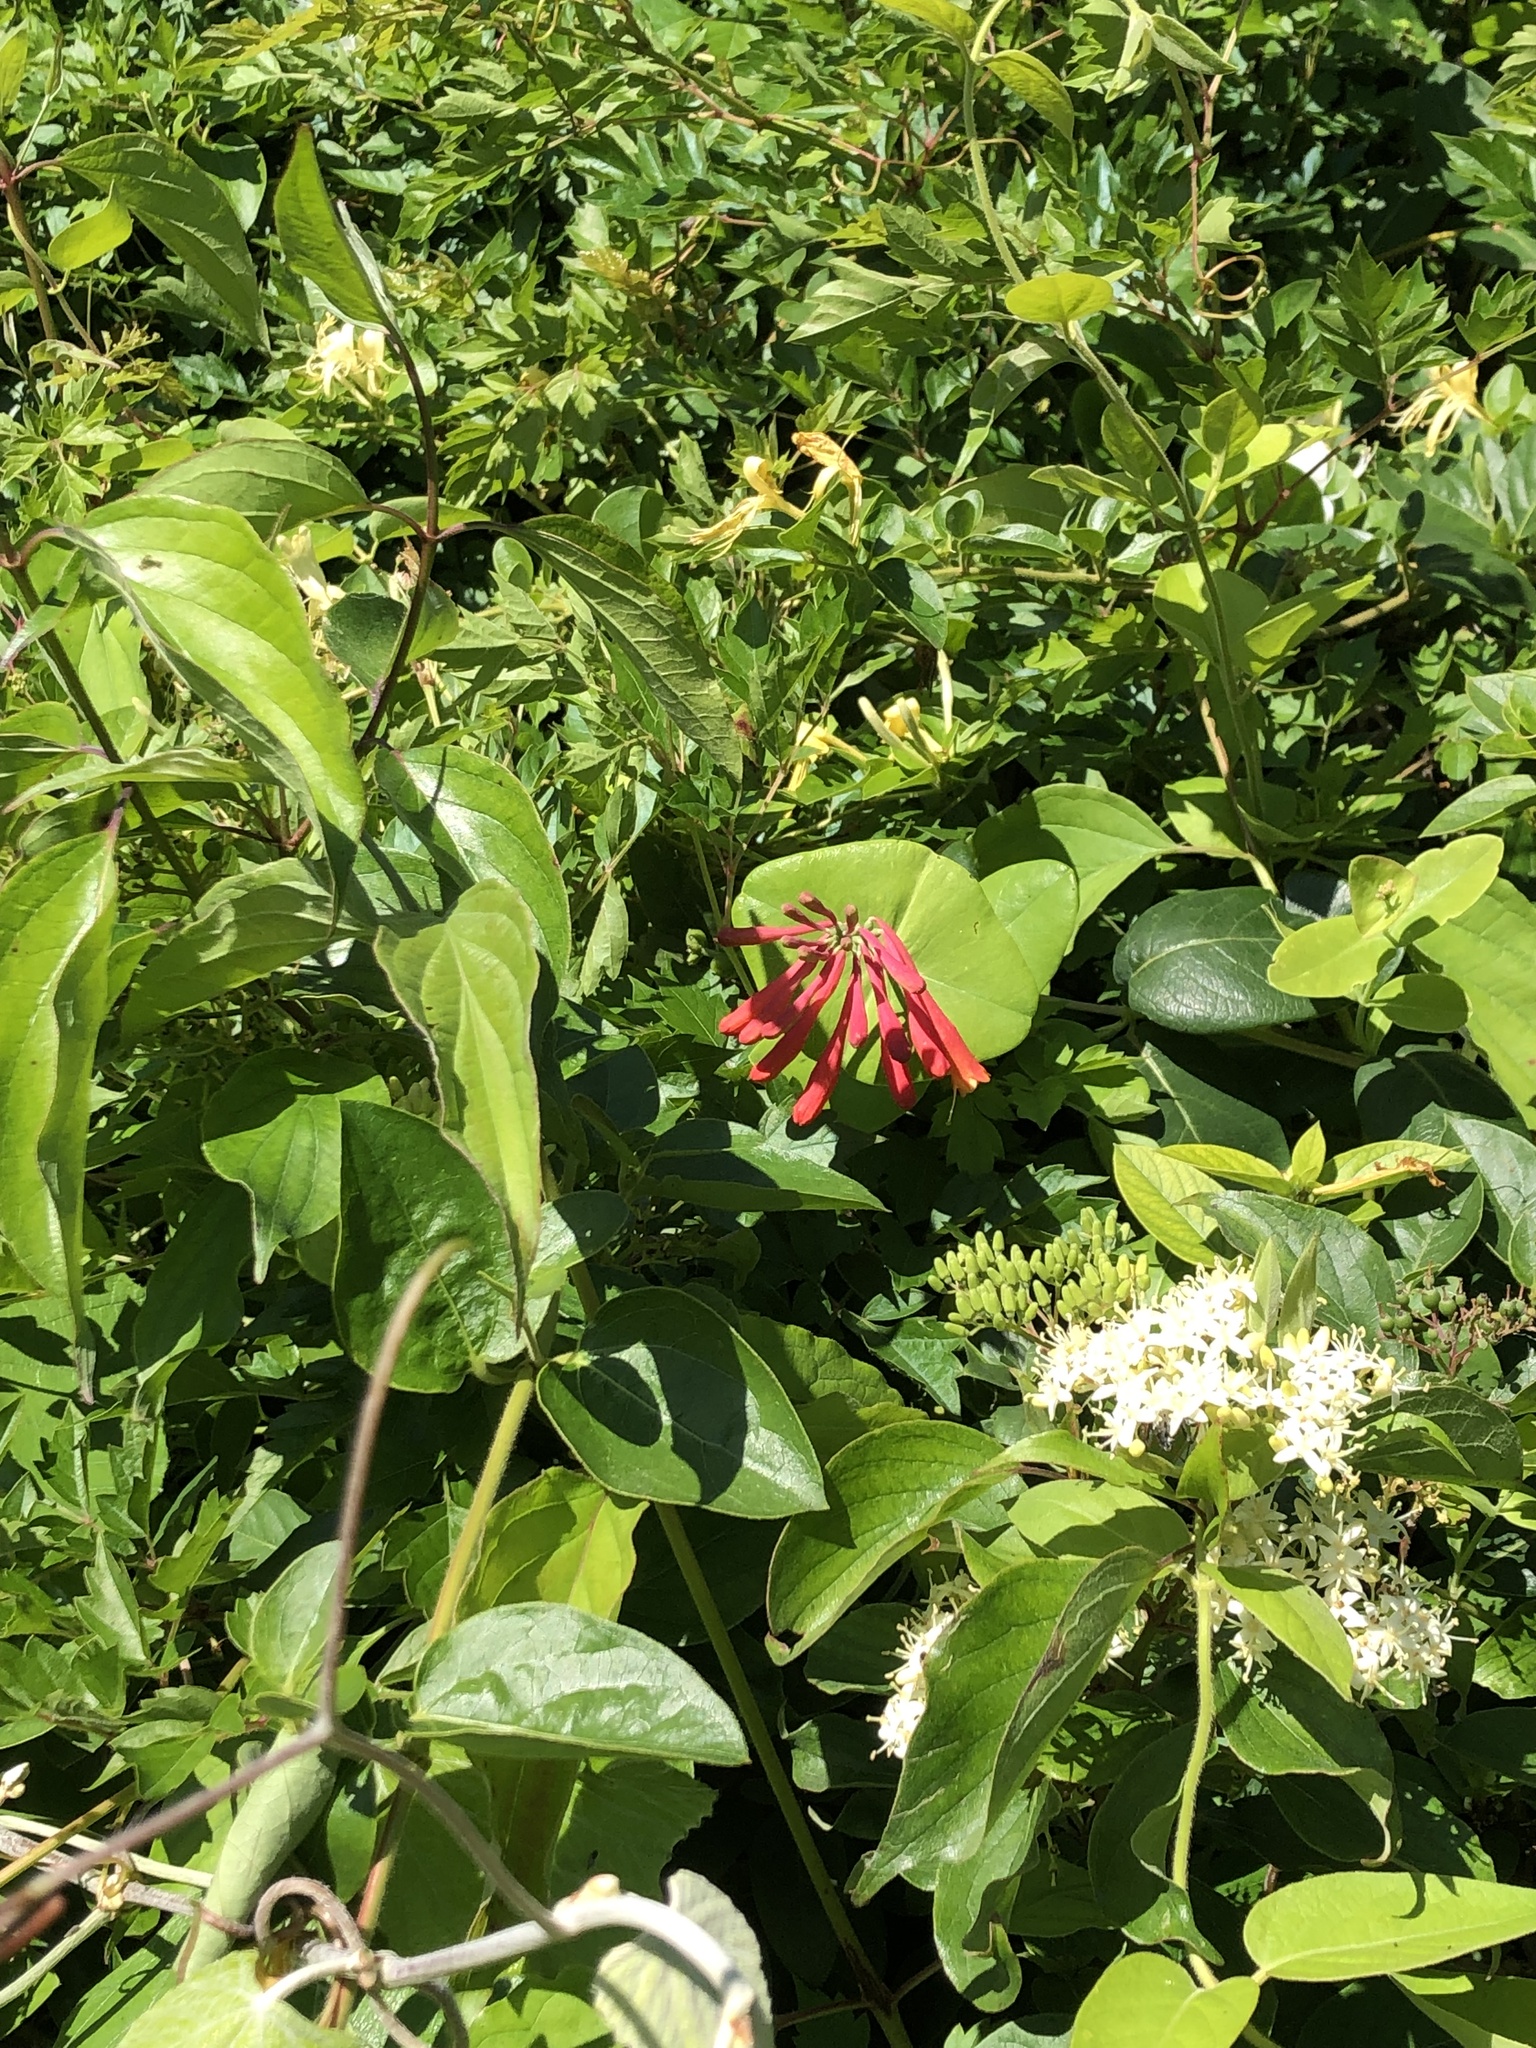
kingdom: Plantae
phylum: Tracheophyta
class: Magnoliopsida
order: Dipsacales
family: Caprifoliaceae
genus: Lonicera
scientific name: Lonicera sempervirens
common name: Coral honeysuckle
